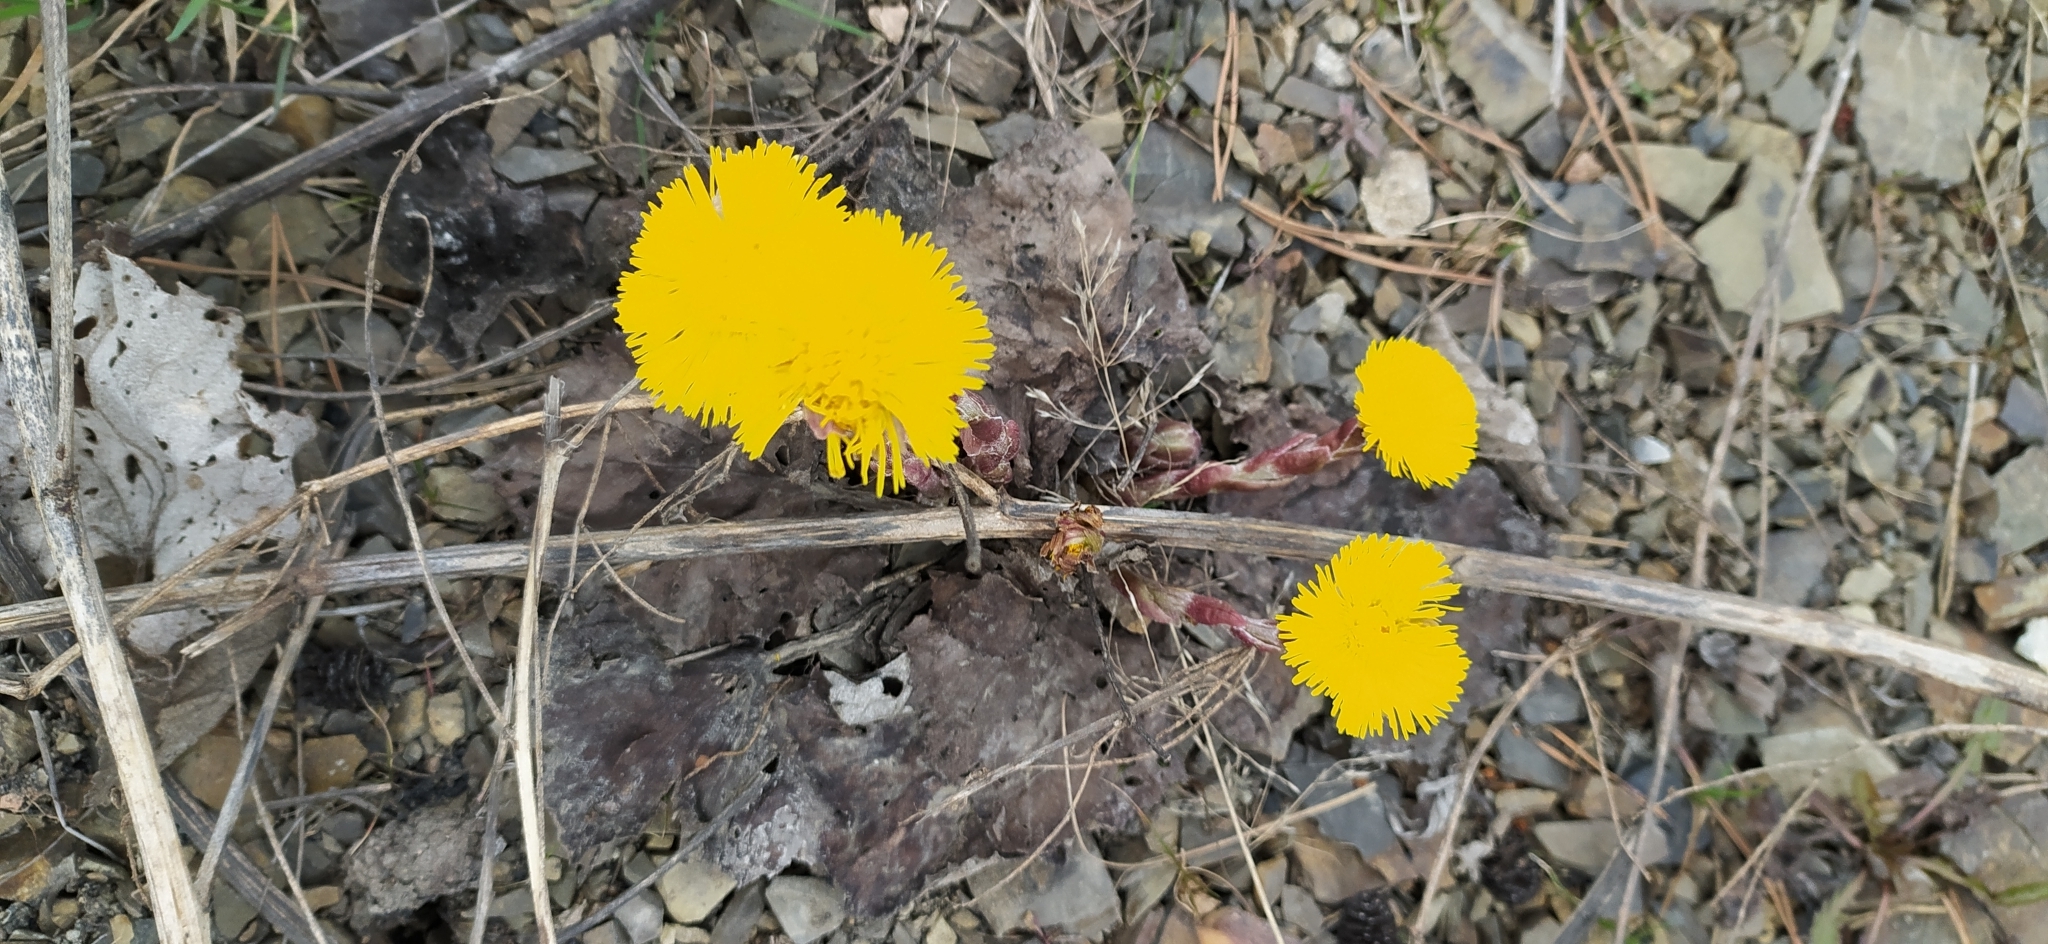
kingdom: Plantae
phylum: Tracheophyta
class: Magnoliopsida
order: Asterales
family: Asteraceae
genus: Tussilago
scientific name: Tussilago farfara
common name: Coltsfoot
